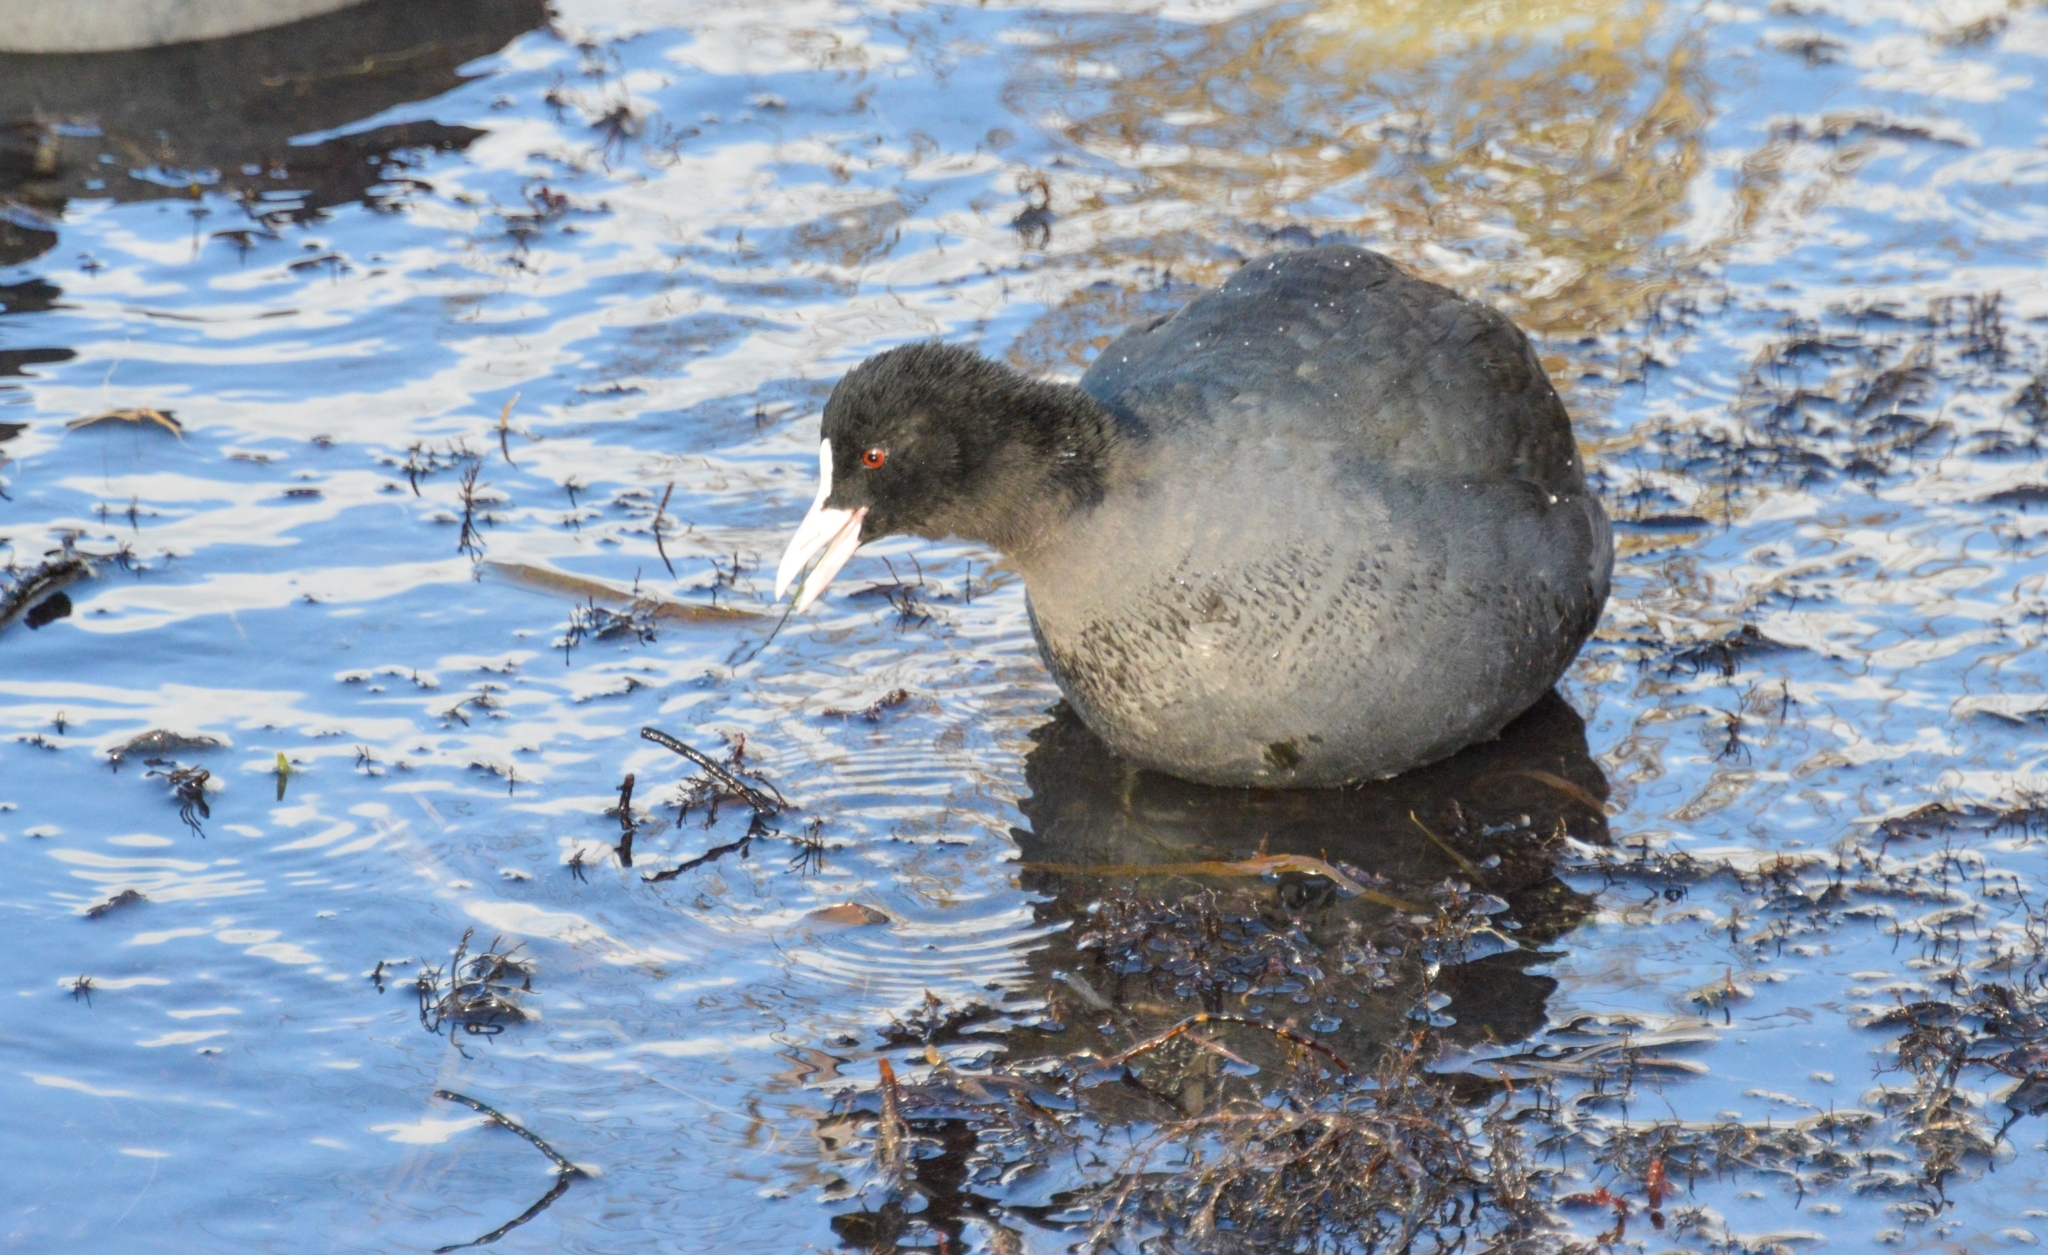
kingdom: Animalia
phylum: Chordata
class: Aves
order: Gruiformes
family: Rallidae
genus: Fulica
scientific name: Fulica atra
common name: Eurasian coot
